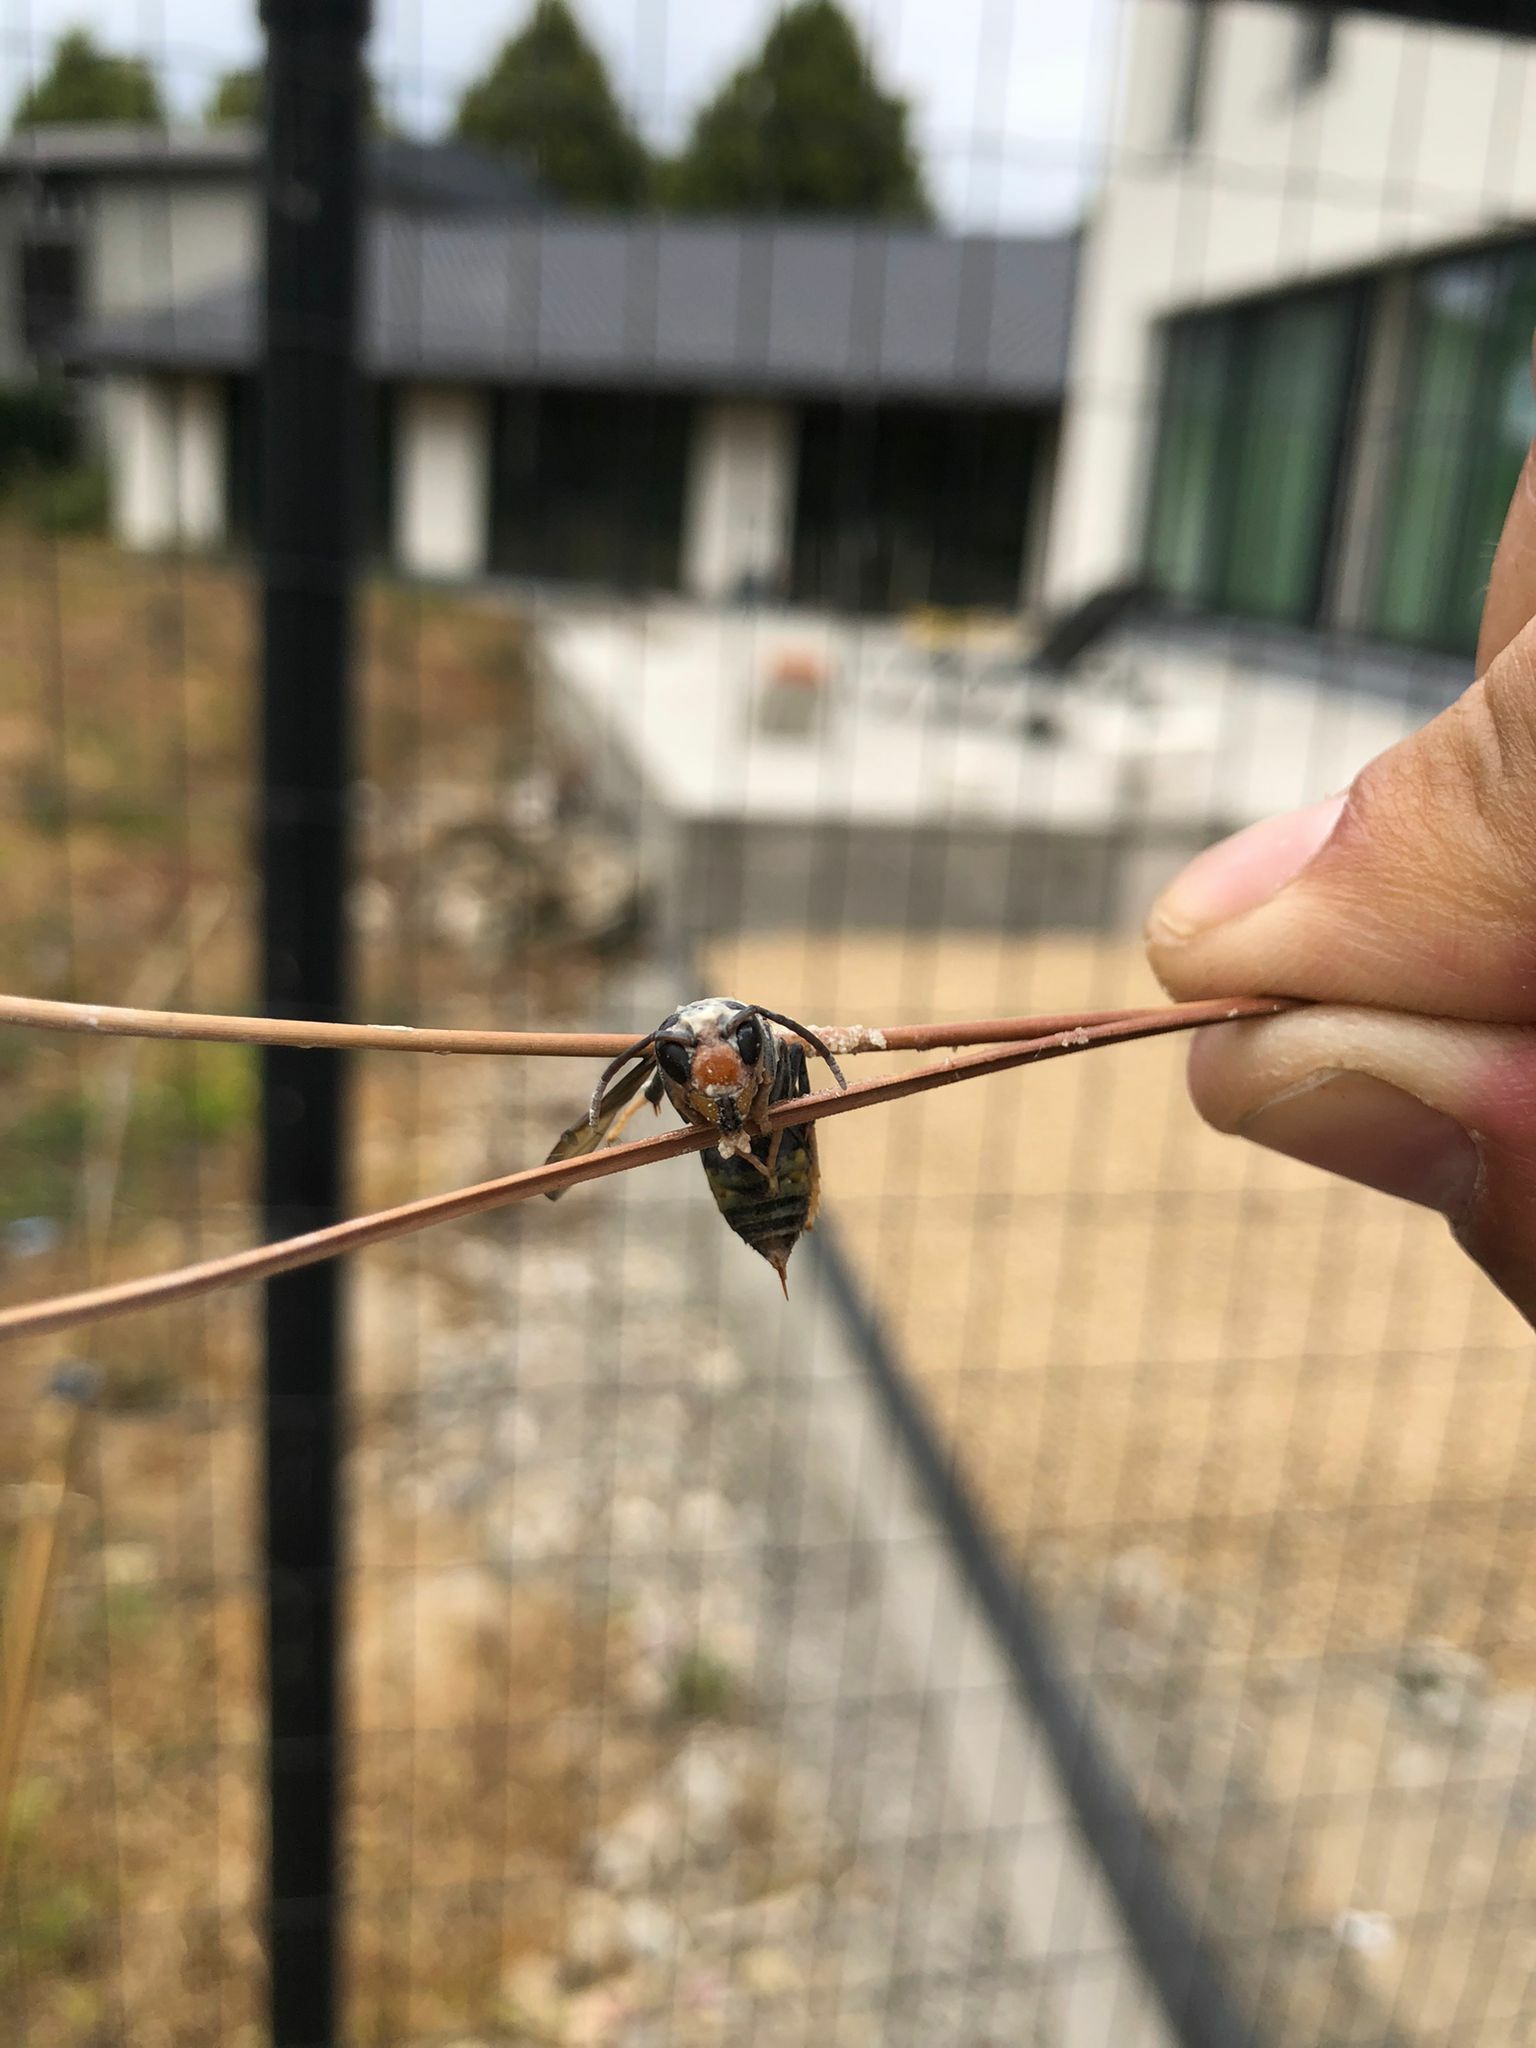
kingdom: Animalia
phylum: Arthropoda
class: Insecta
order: Hymenoptera
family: Vespidae
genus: Vespa
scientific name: Vespa velutina
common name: Asian hornet
